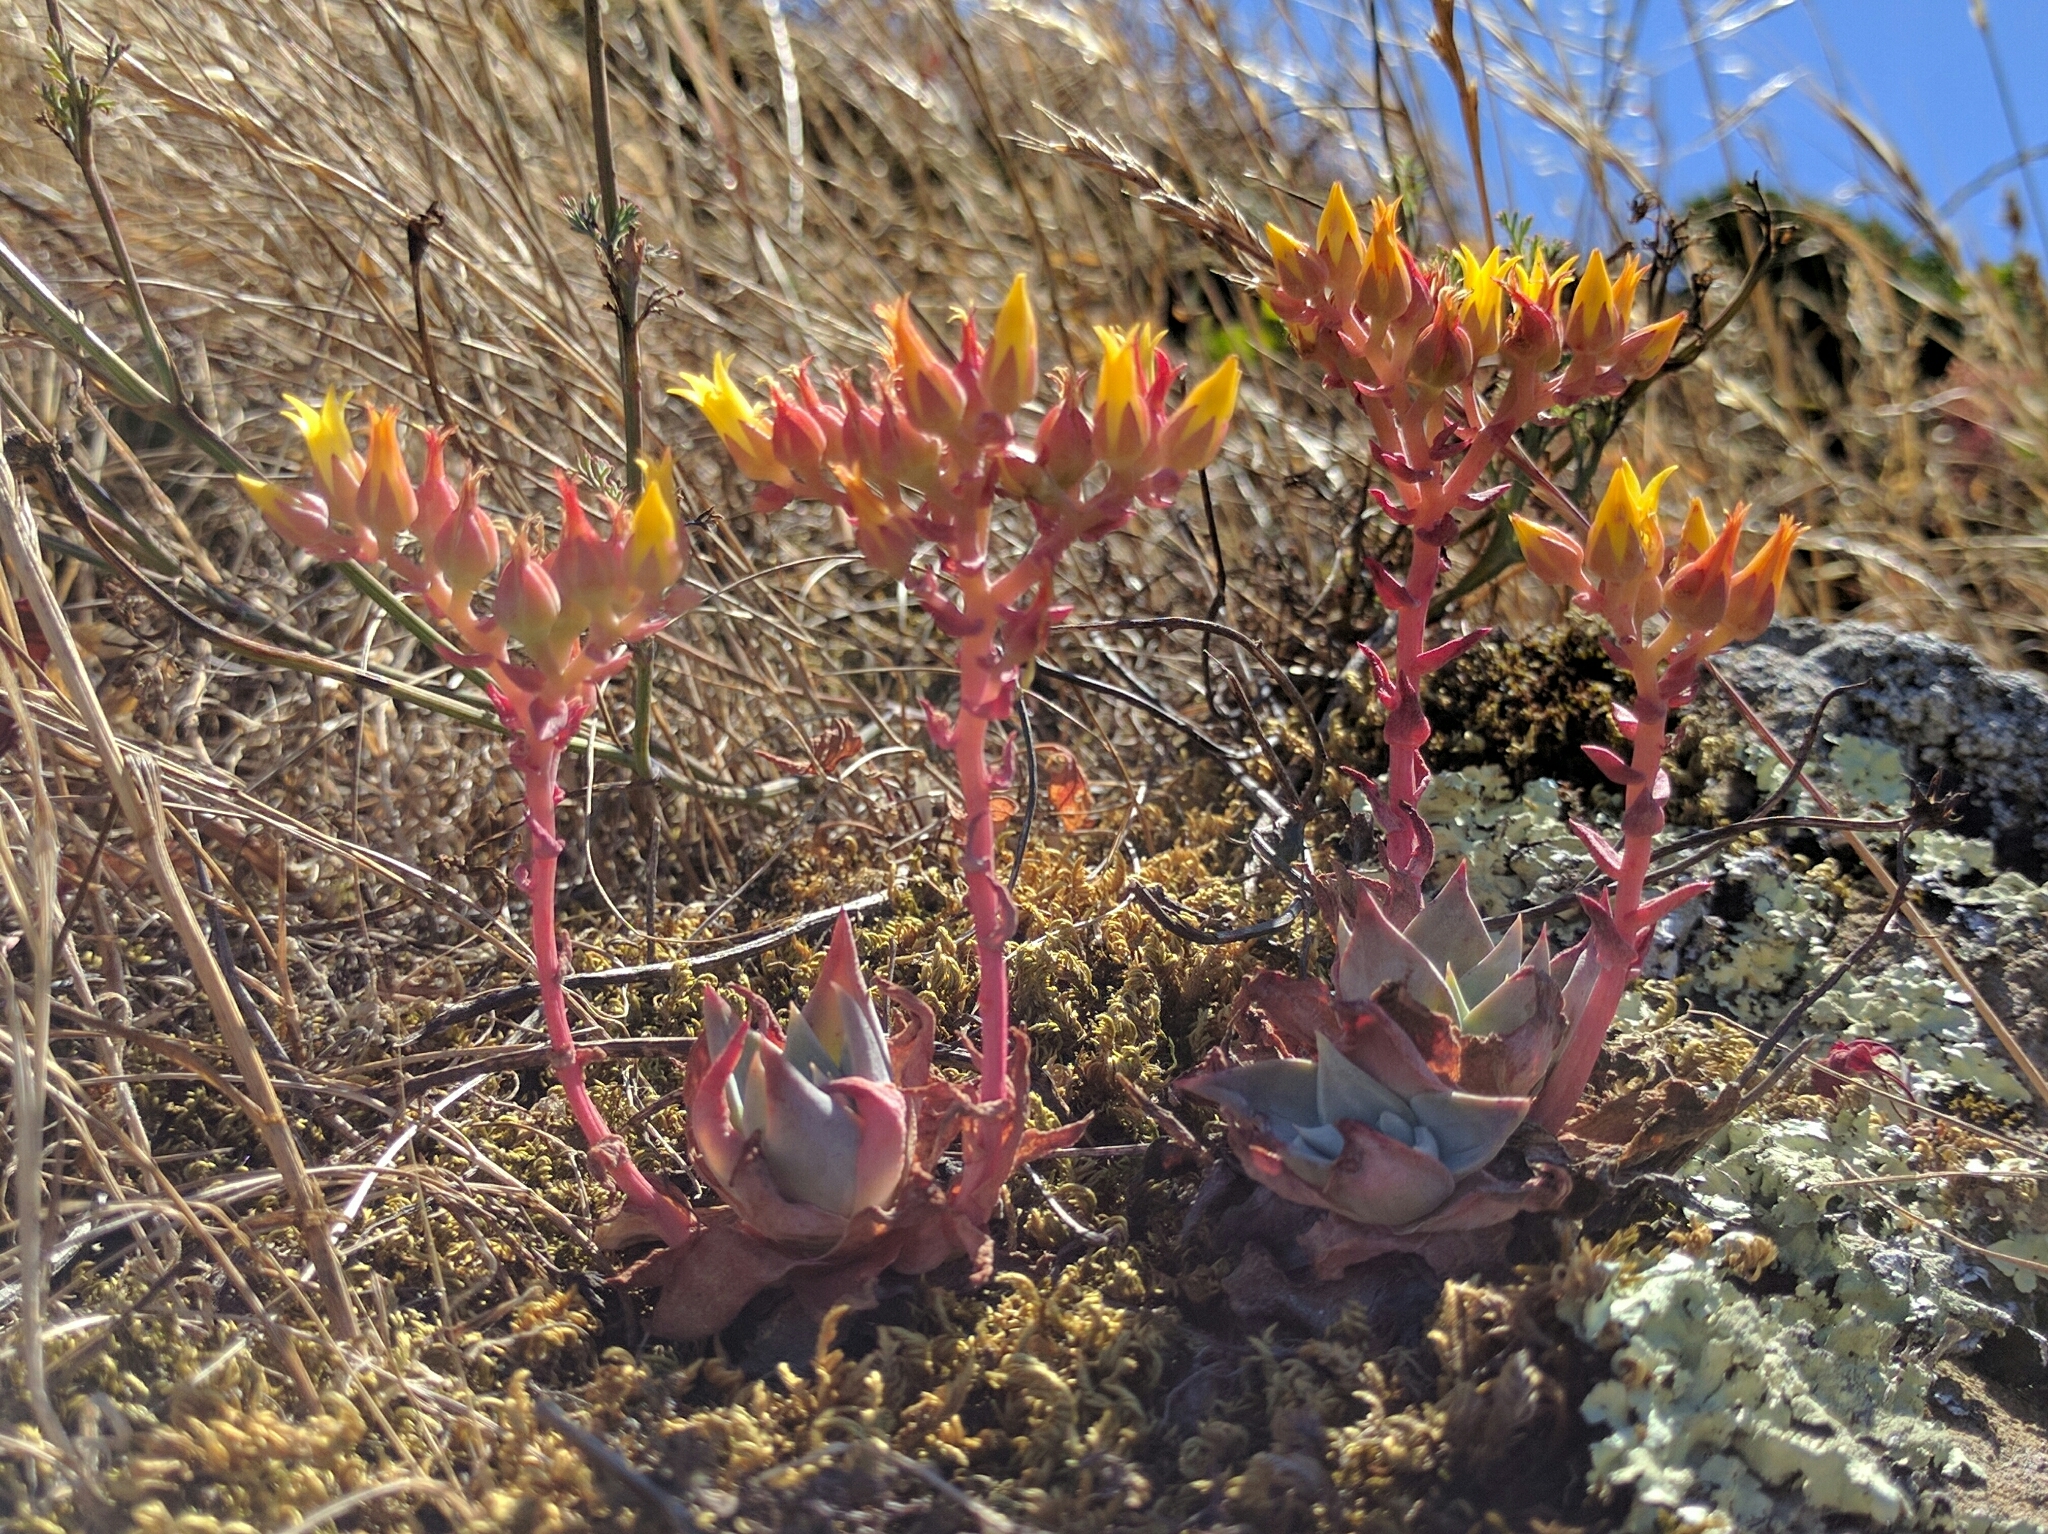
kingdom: Plantae
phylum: Tracheophyta
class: Magnoliopsida
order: Saxifragales
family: Crassulaceae
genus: Dudleya
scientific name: Dudleya cymosa
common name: Canyon dudleya
